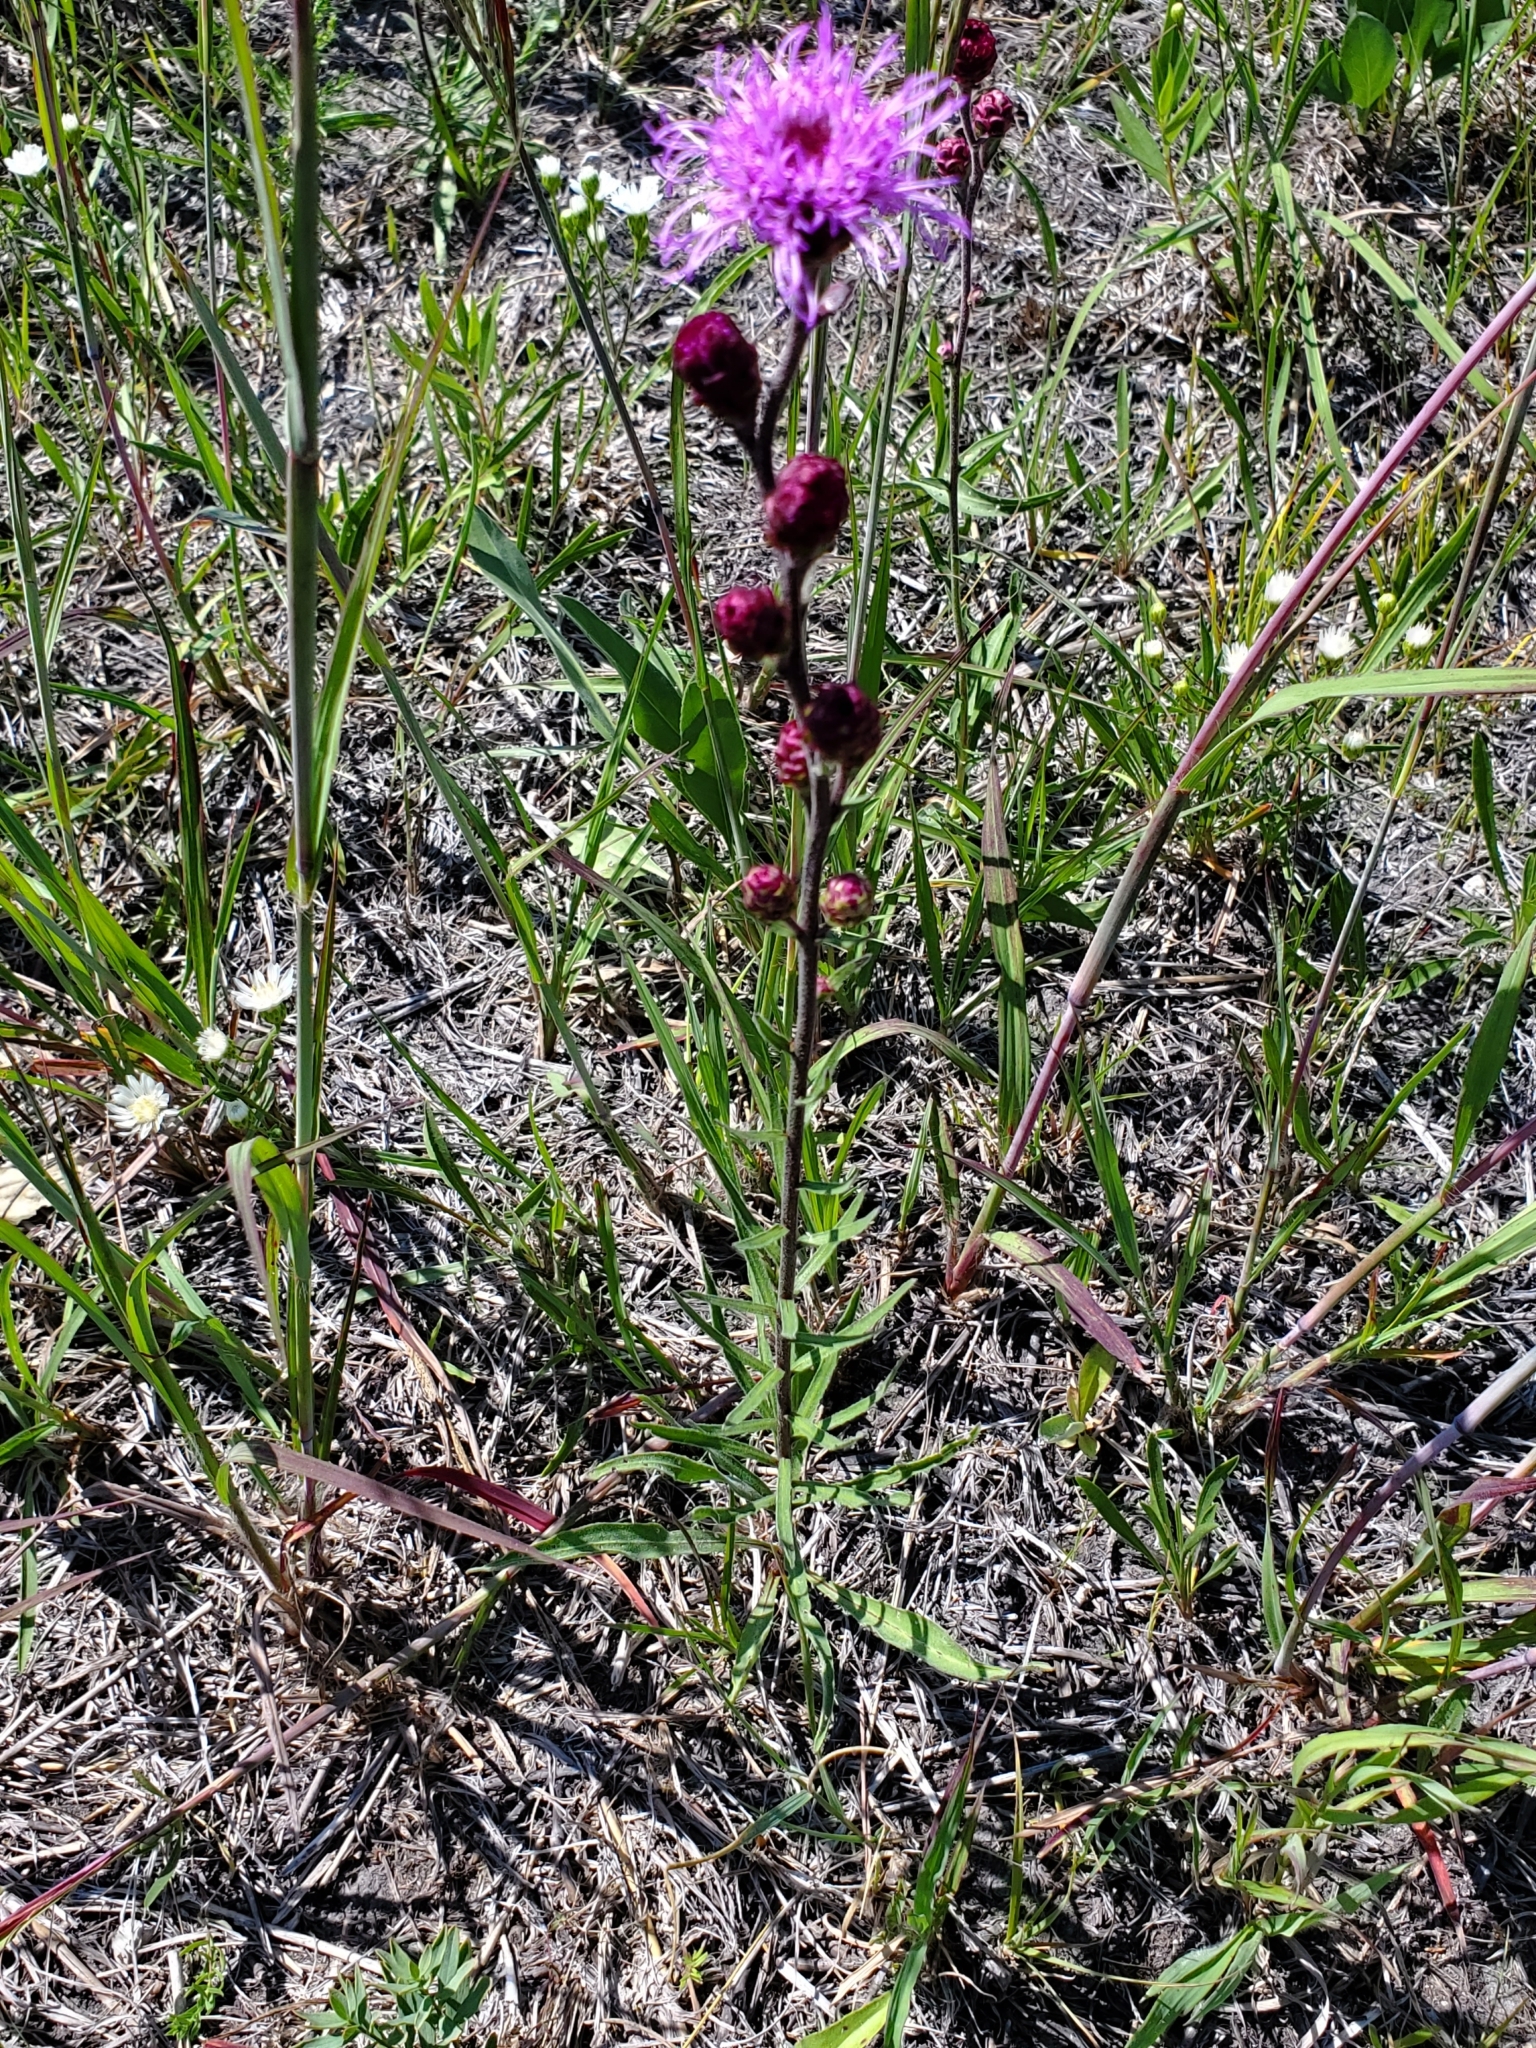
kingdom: Plantae
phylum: Tracheophyta
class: Magnoliopsida
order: Asterales
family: Asteraceae
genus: Liatris
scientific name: Liatris ligulistylis
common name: Northern plains gayfeather
